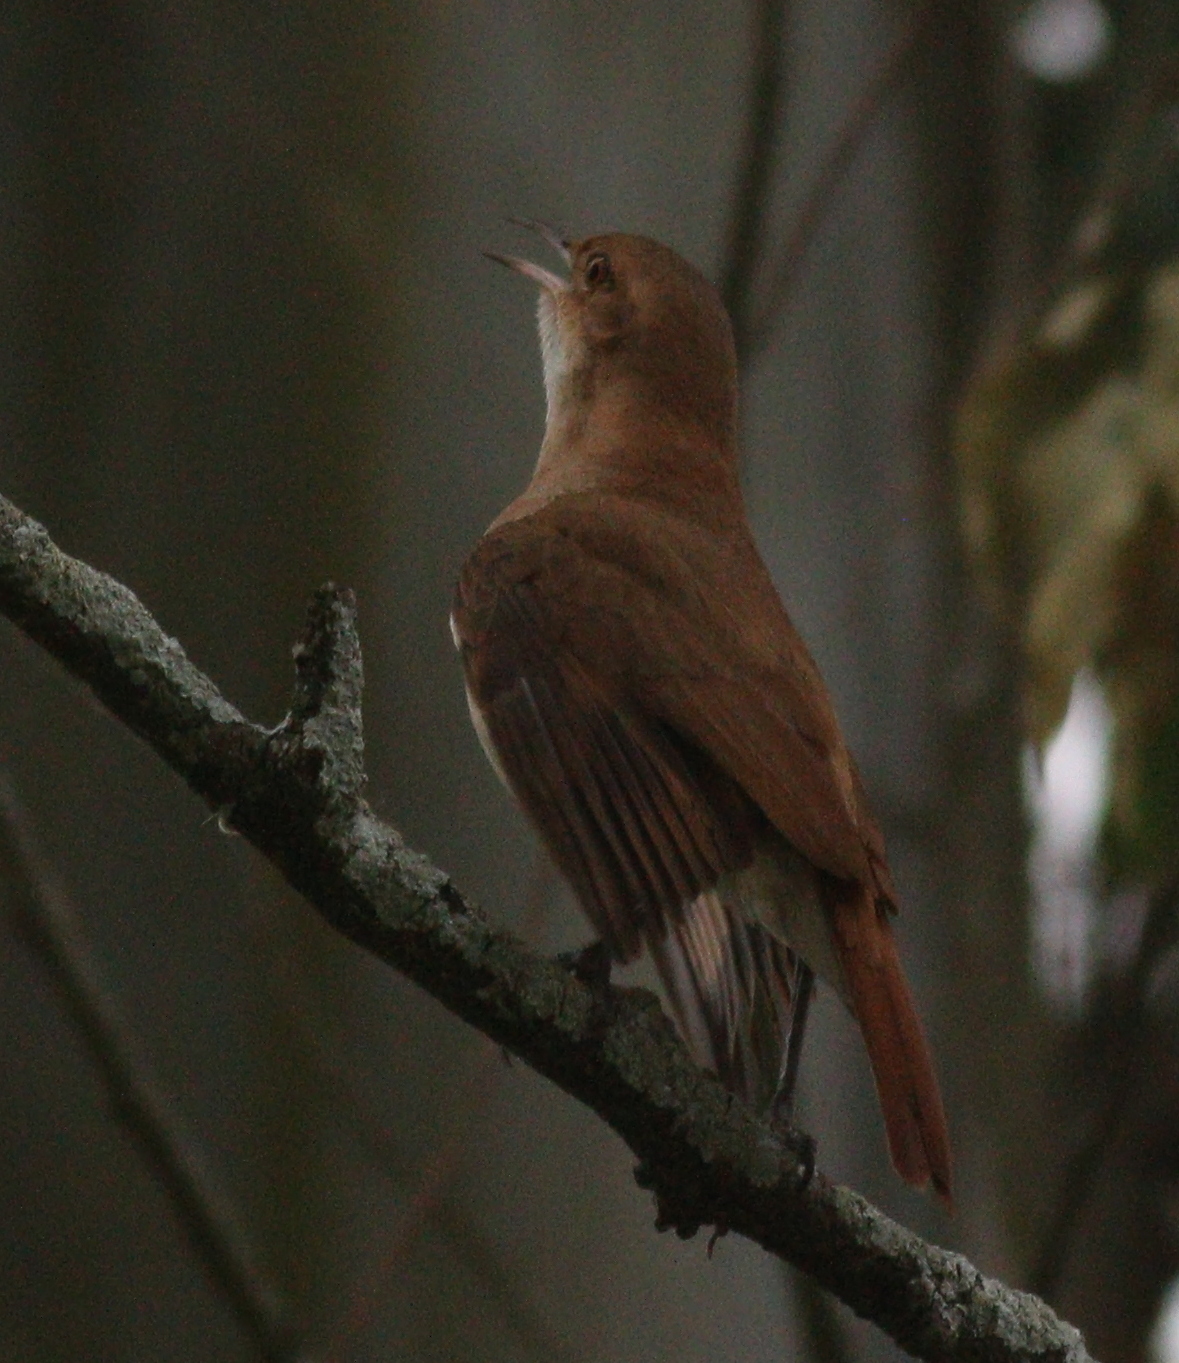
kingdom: Animalia
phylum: Chordata
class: Aves
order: Passeriformes
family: Furnariidae
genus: Furnarius
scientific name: Furnarius rufus
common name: Rufous hornero
